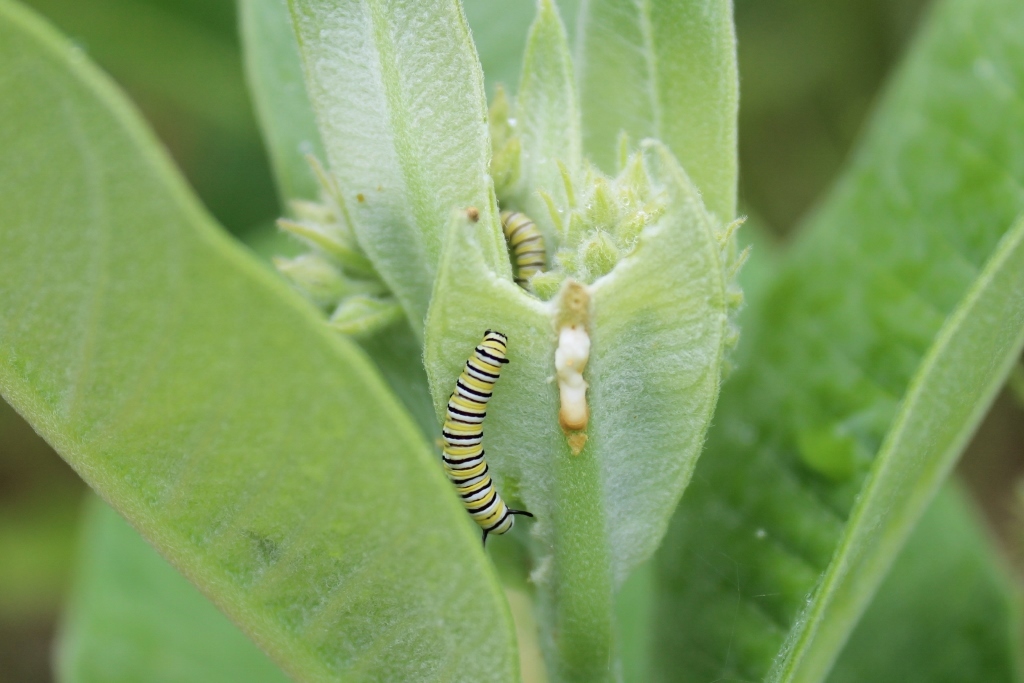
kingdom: Animalia
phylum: Arthropoda
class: Insecta
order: Lepidoptera
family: Nymphalidae
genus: Danaus
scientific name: Danaus plexippus
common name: Monarch
